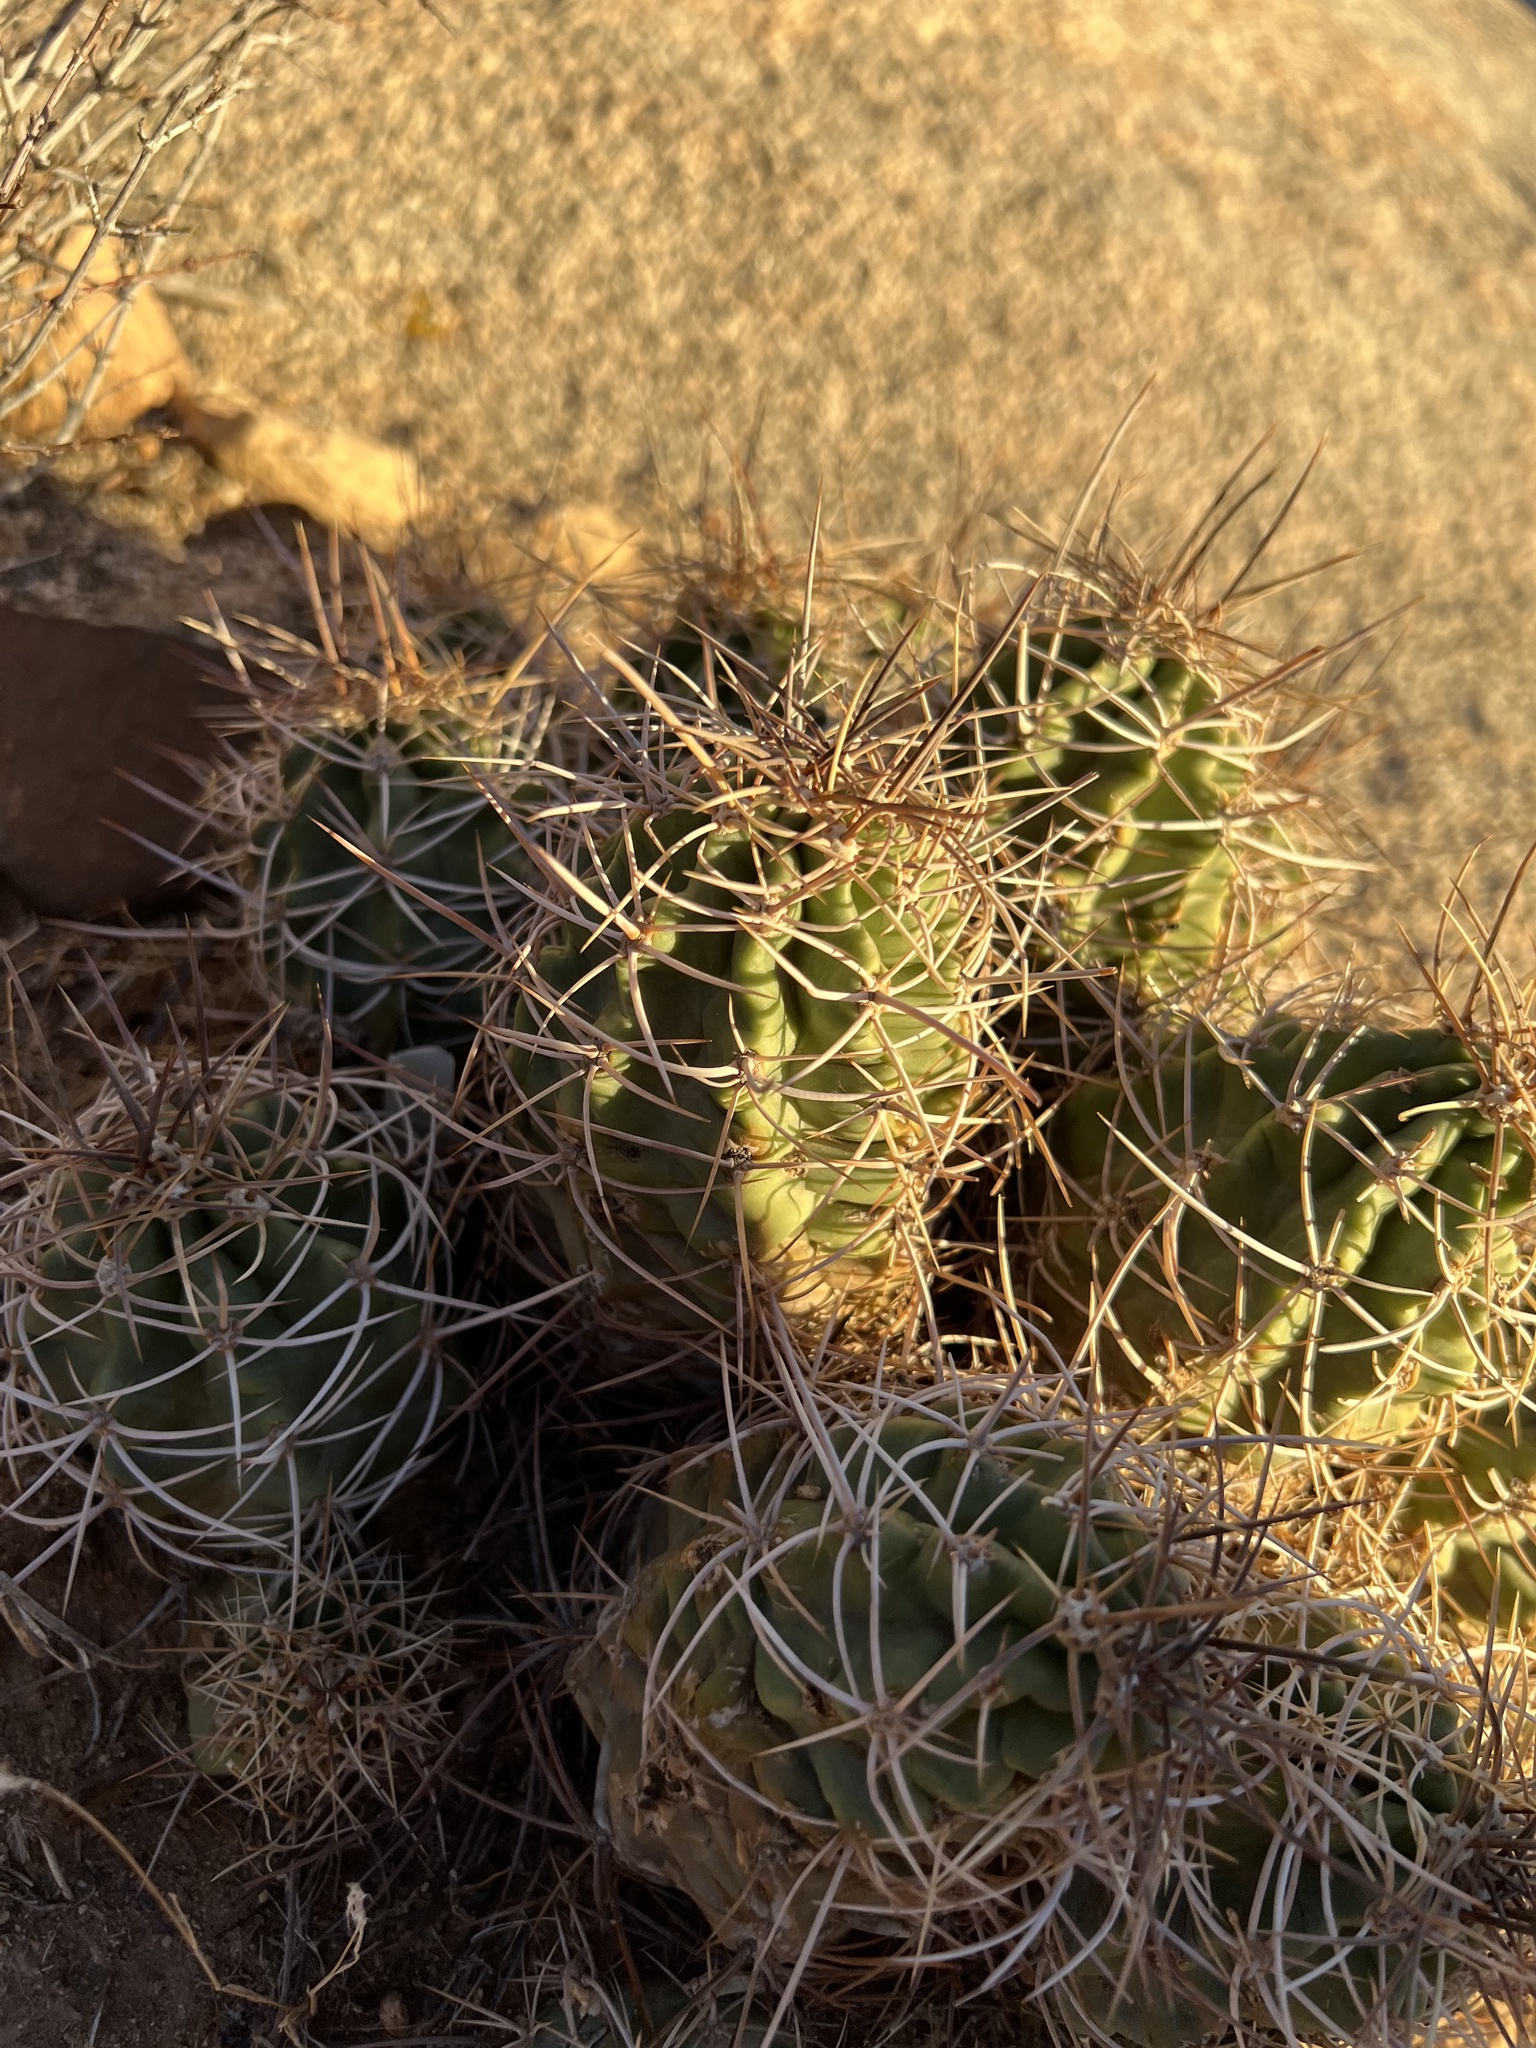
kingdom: Plantae
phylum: Tracheophyta
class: Magnoliopsida
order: Caryophyllales
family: Cactaceae
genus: Echinocereus
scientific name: Echinocereus triglochidiatus
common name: Claretcup hedgehog
